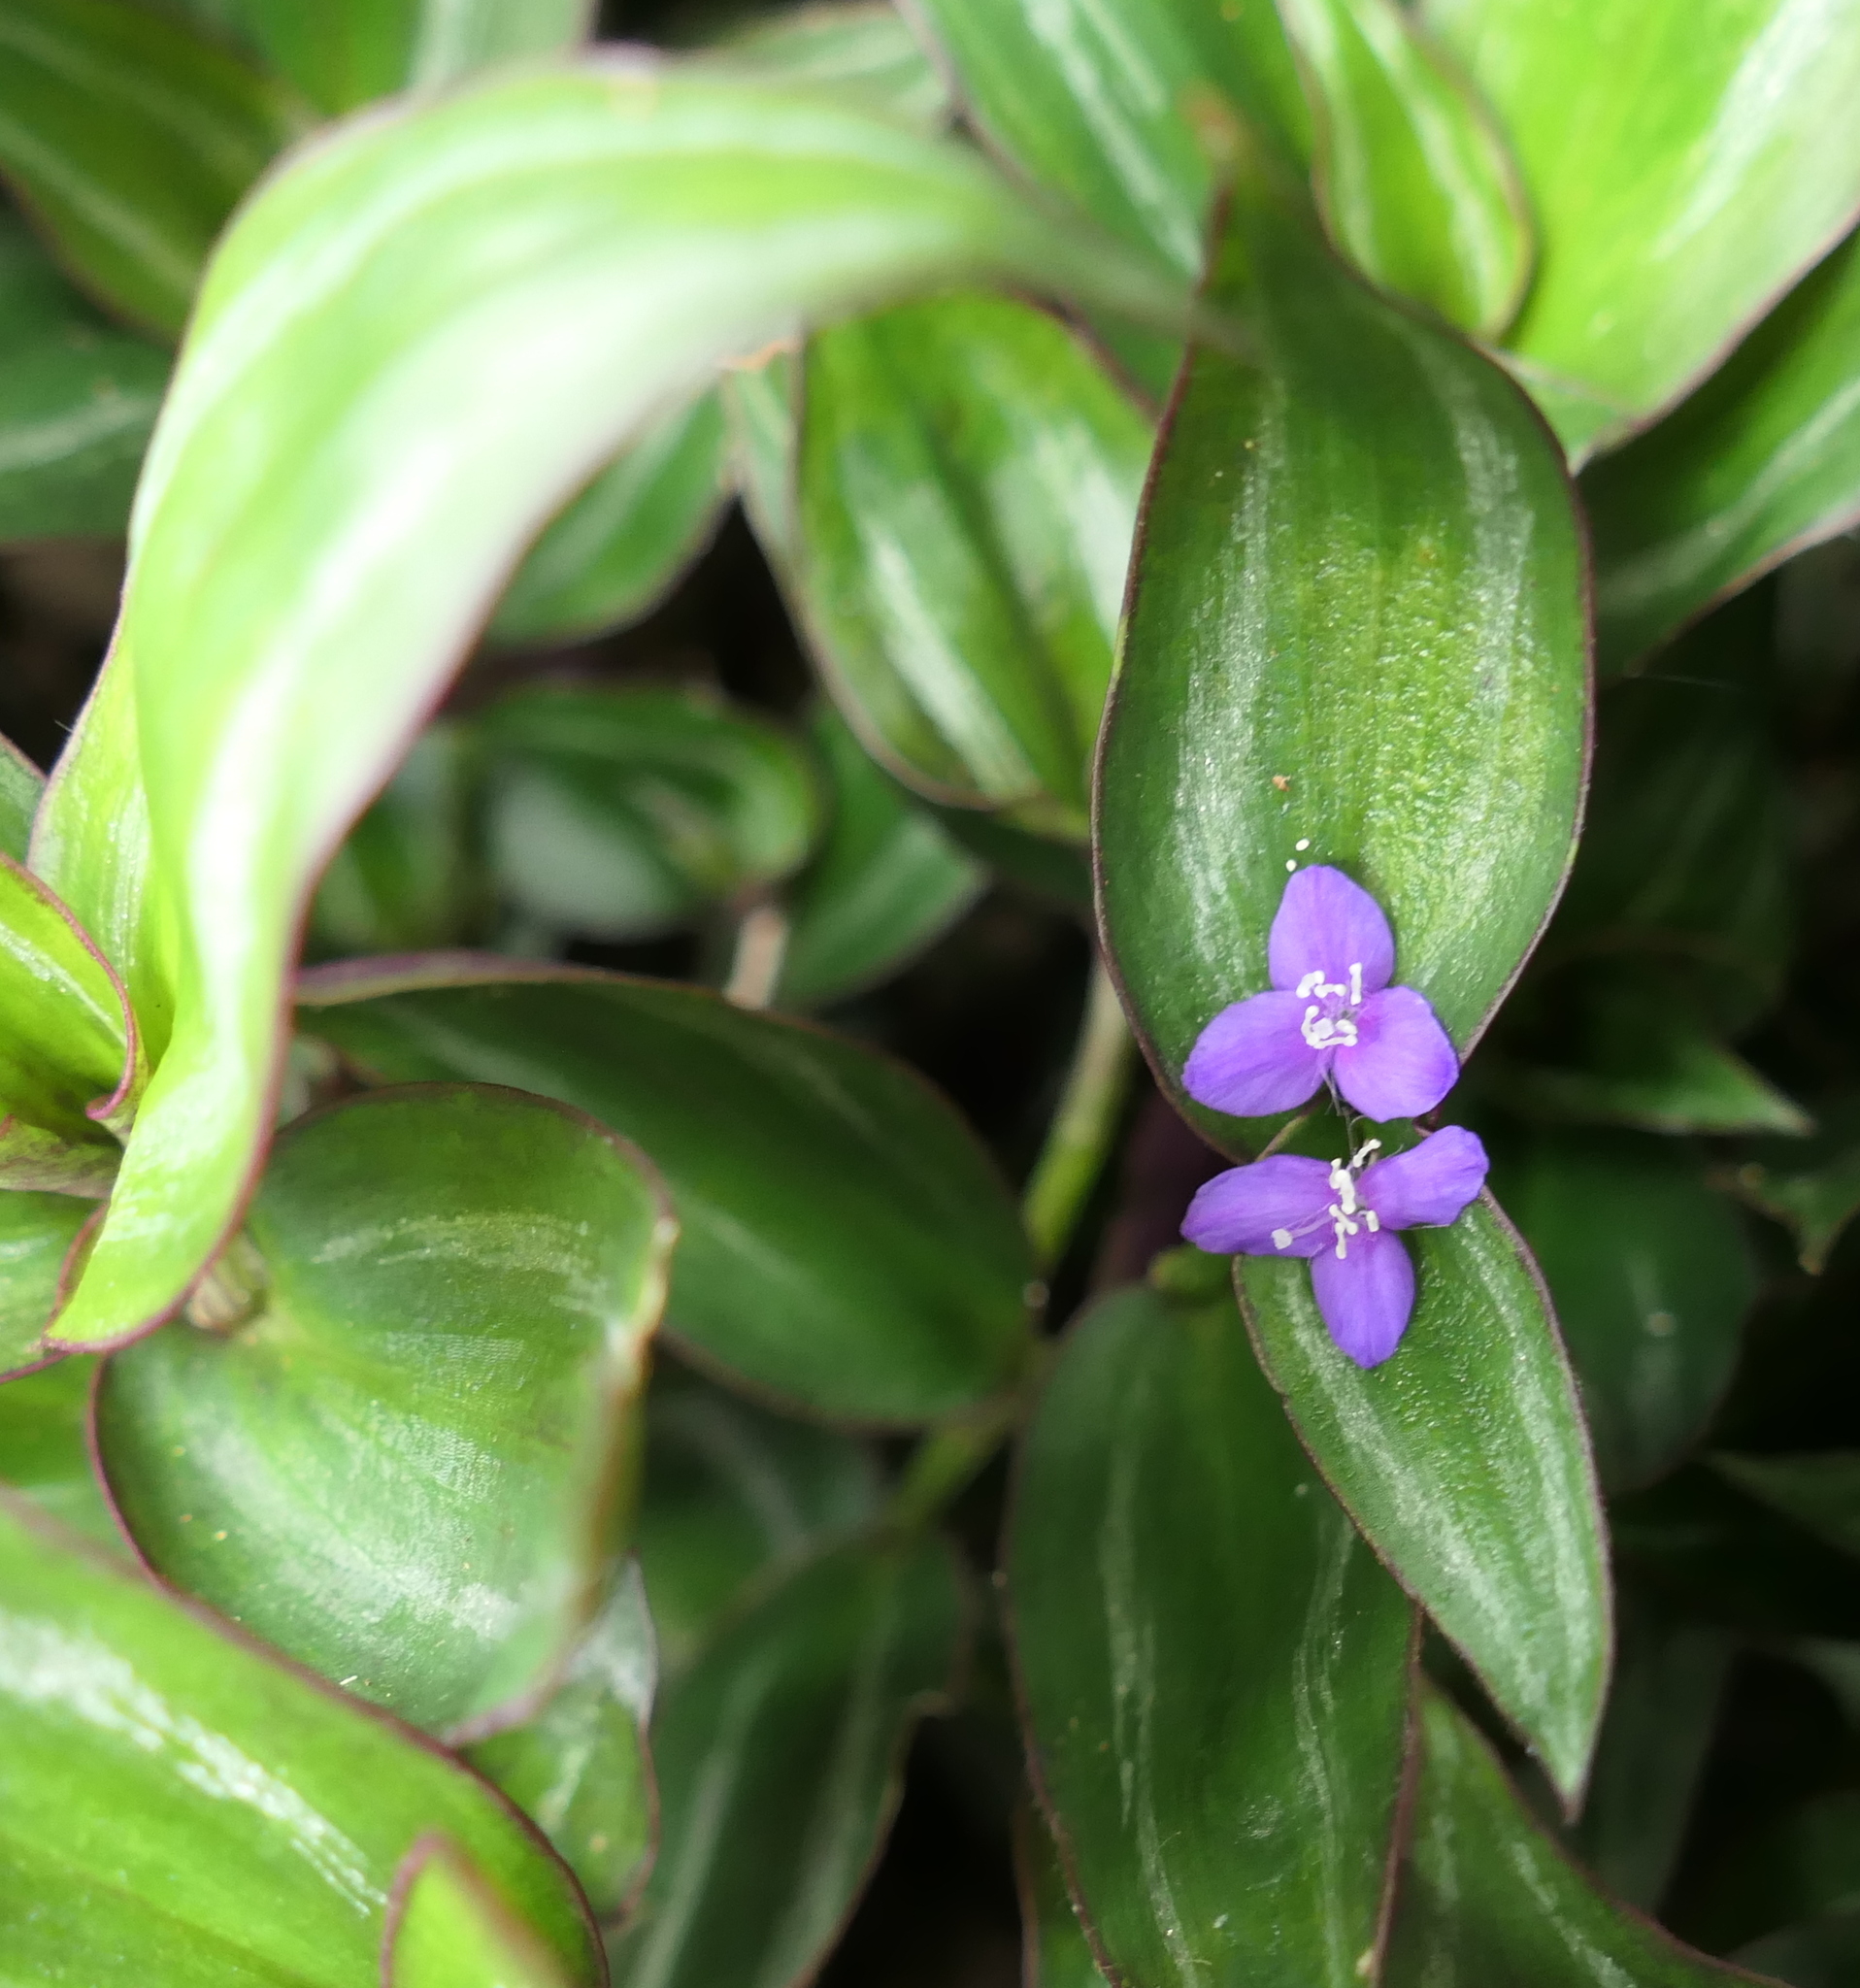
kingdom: Plantae
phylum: Tracheophyta
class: Liliopsida
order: Commelinales
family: Commelinaceae
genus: Tradescantia
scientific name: Tradescantia zebrina
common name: Inchplant
